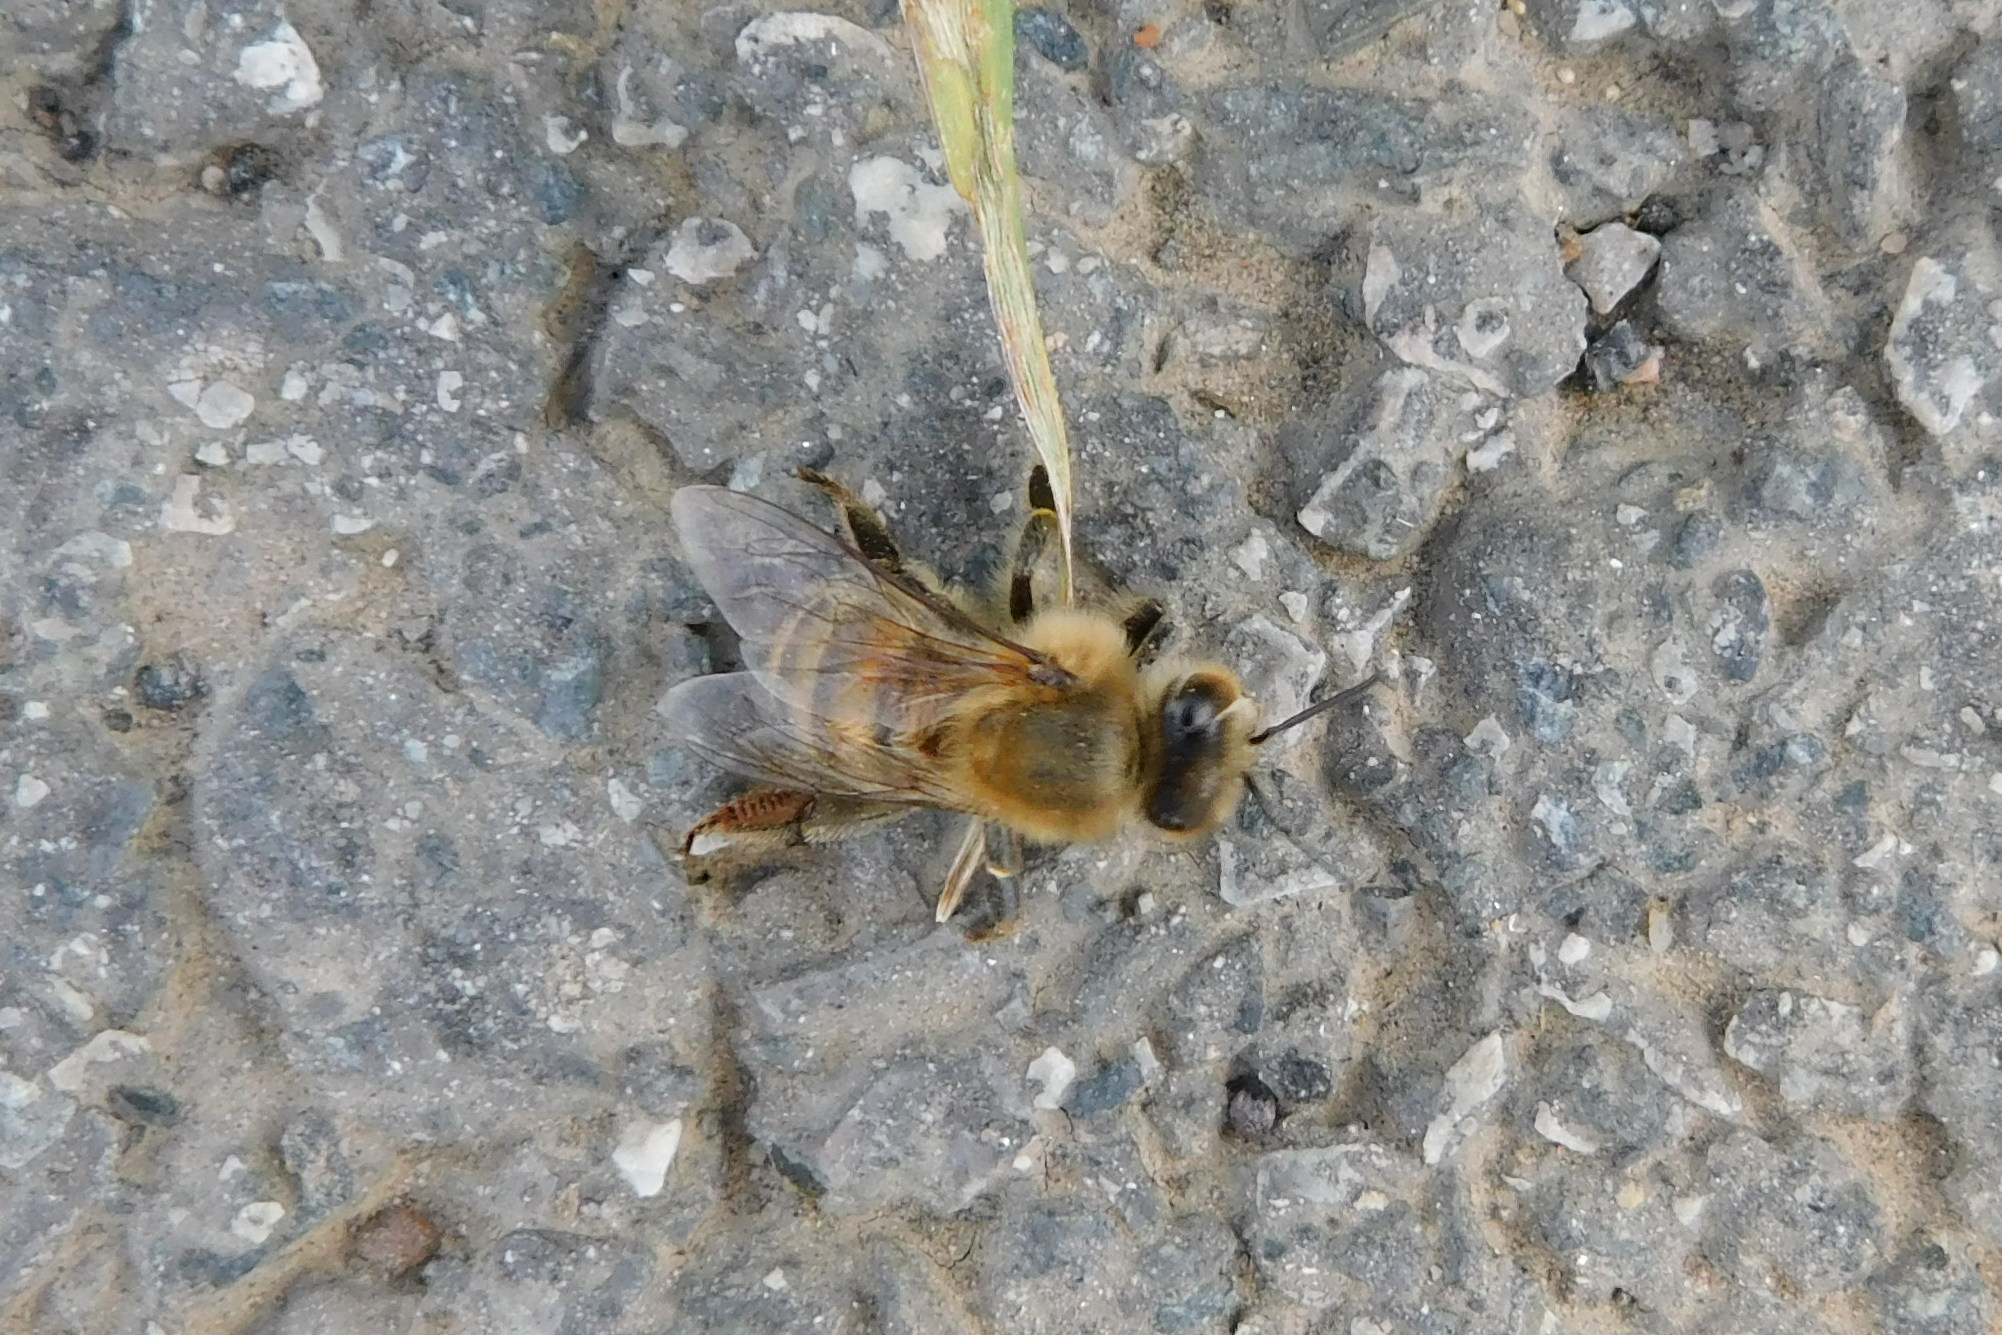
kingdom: Animalia
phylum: Arthropoda
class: Insecta
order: Hymenoptera
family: Apidae
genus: Apis
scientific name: Apis mellifera
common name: Honey bee
